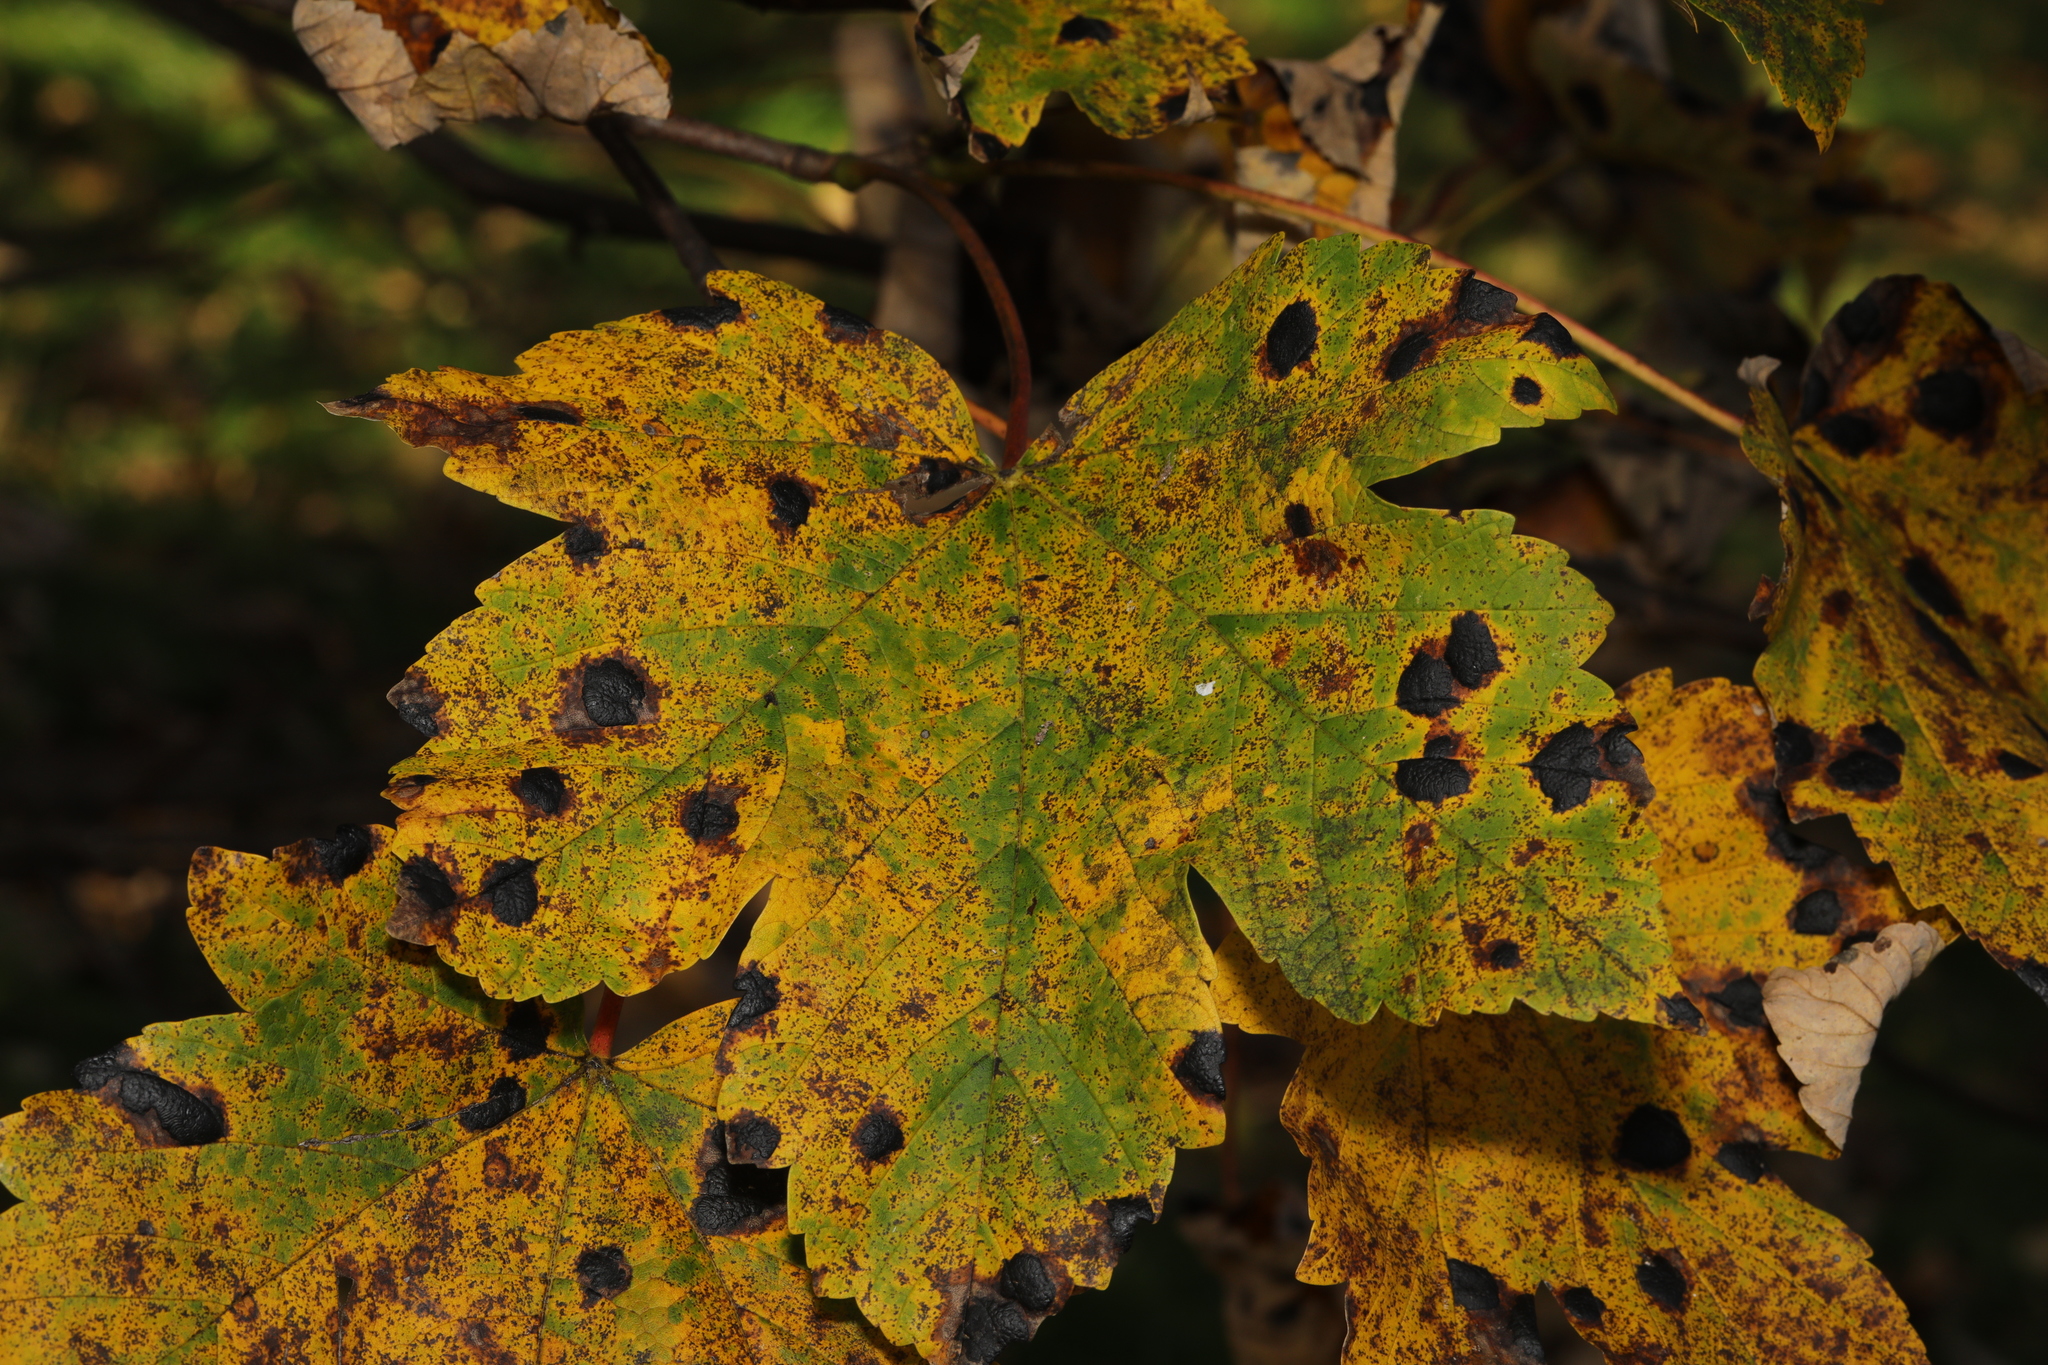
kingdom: Fungi
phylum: Ascomycota
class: Leotiomycetes
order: Rhytismatales
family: Rhytismataceae
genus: Rhytisma
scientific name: Rhytisma acerinum
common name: European tar spot
